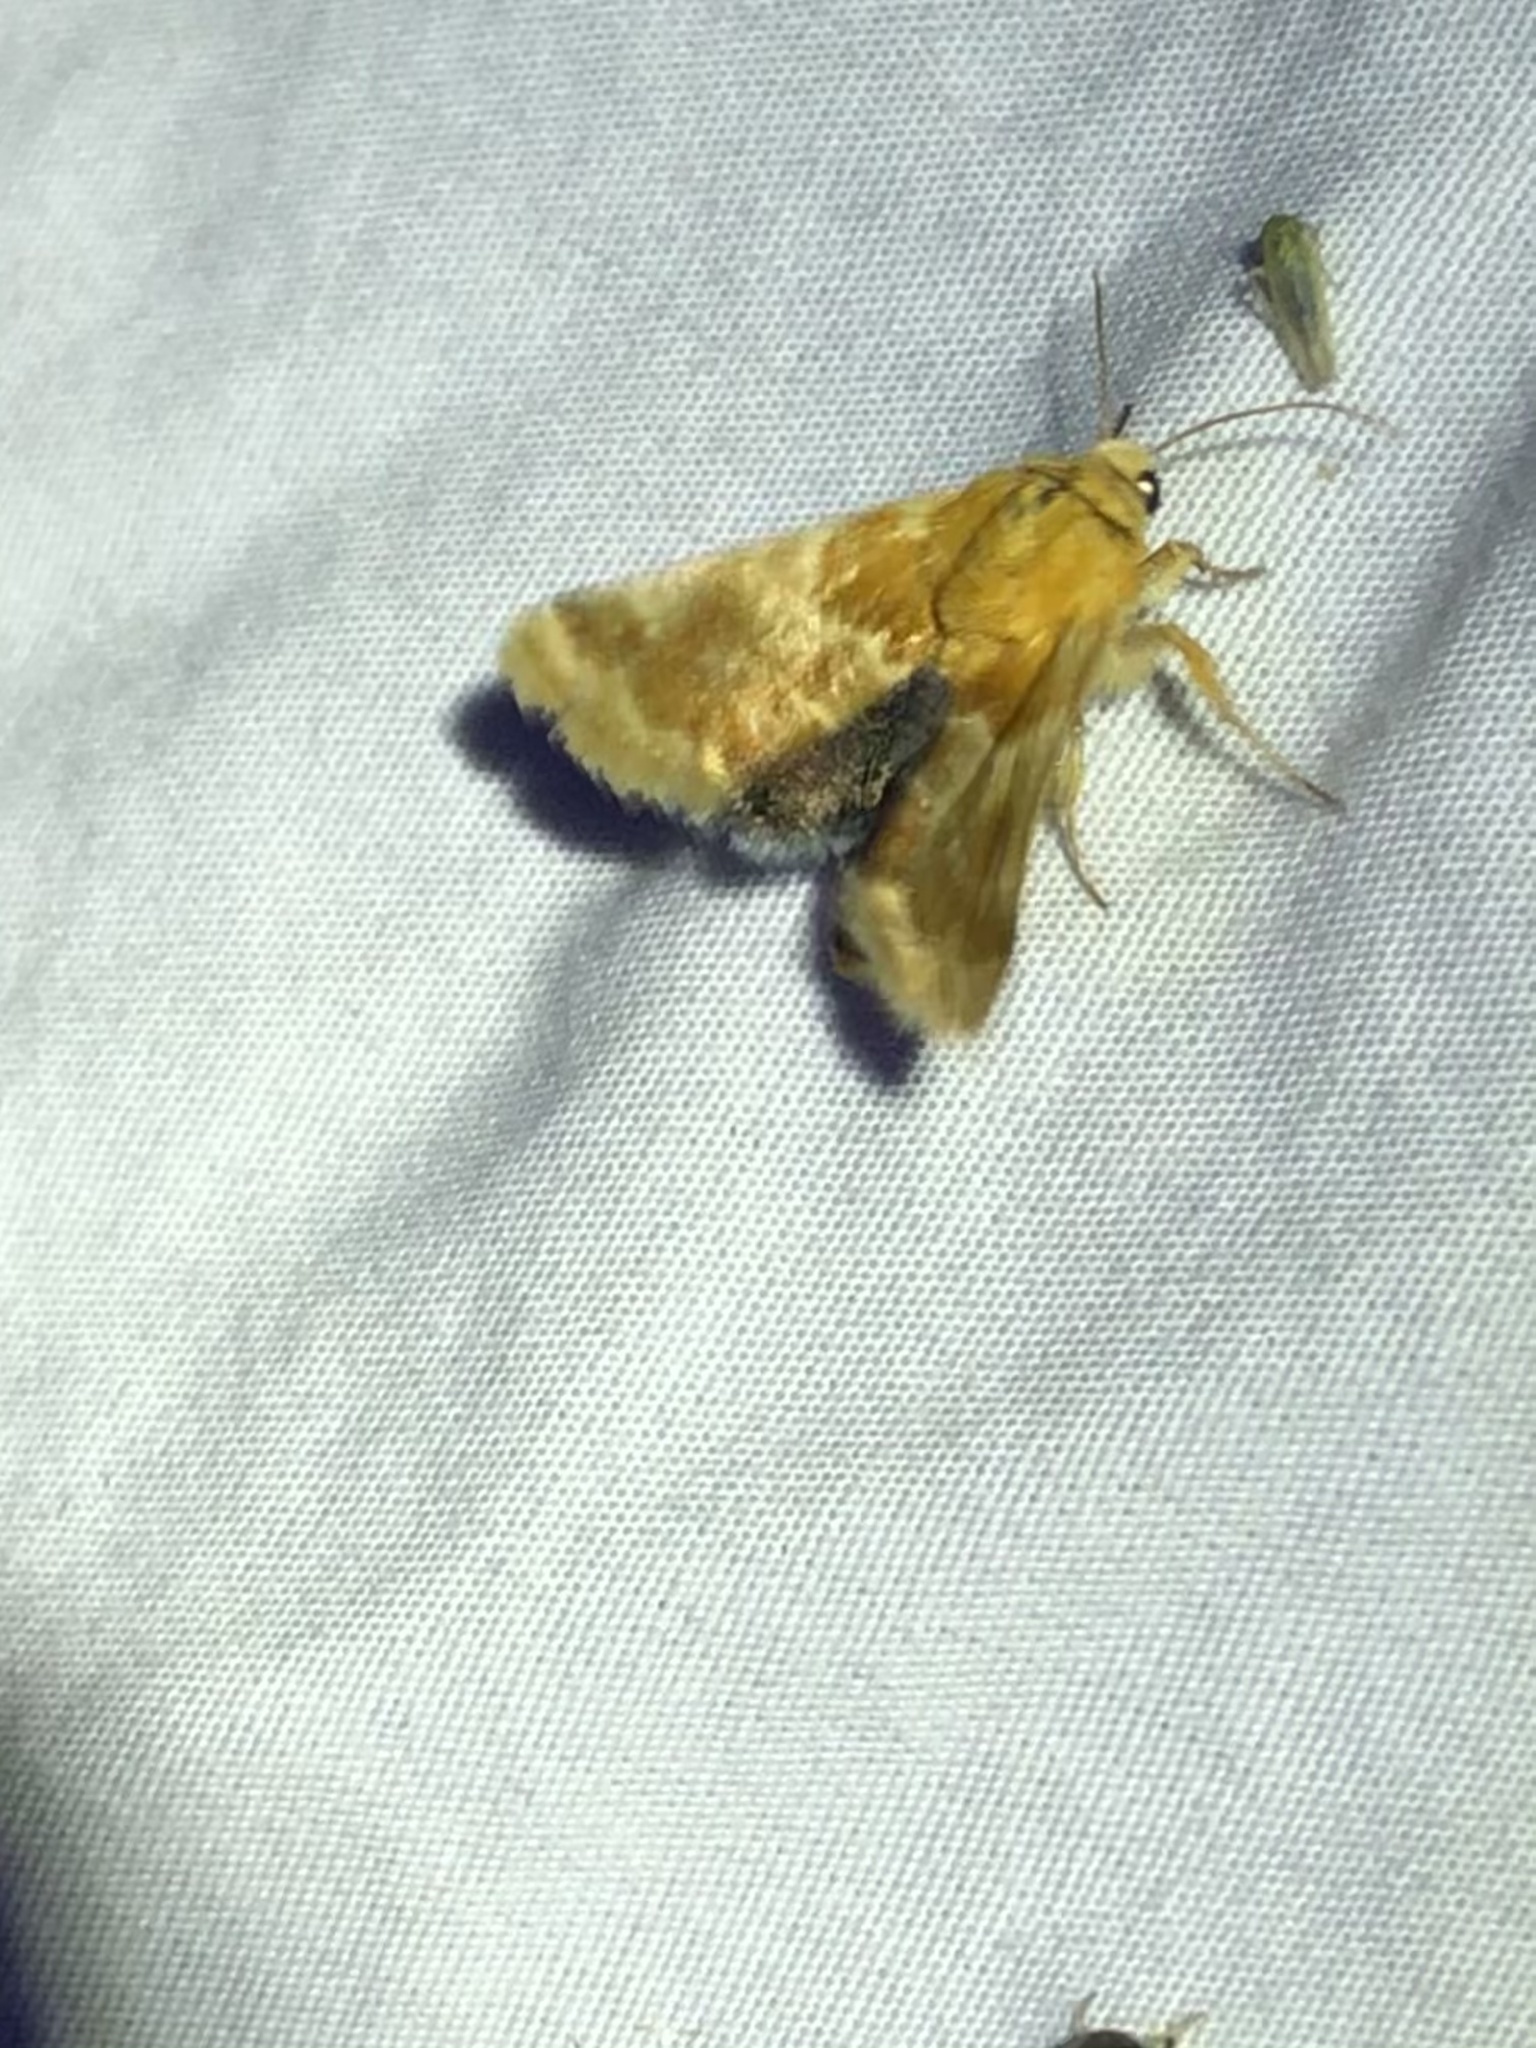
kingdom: Animalia
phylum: Arthropoda
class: Insecta
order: Lepidoptera
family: Noctuidae
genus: Schinia
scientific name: Schinia siren
